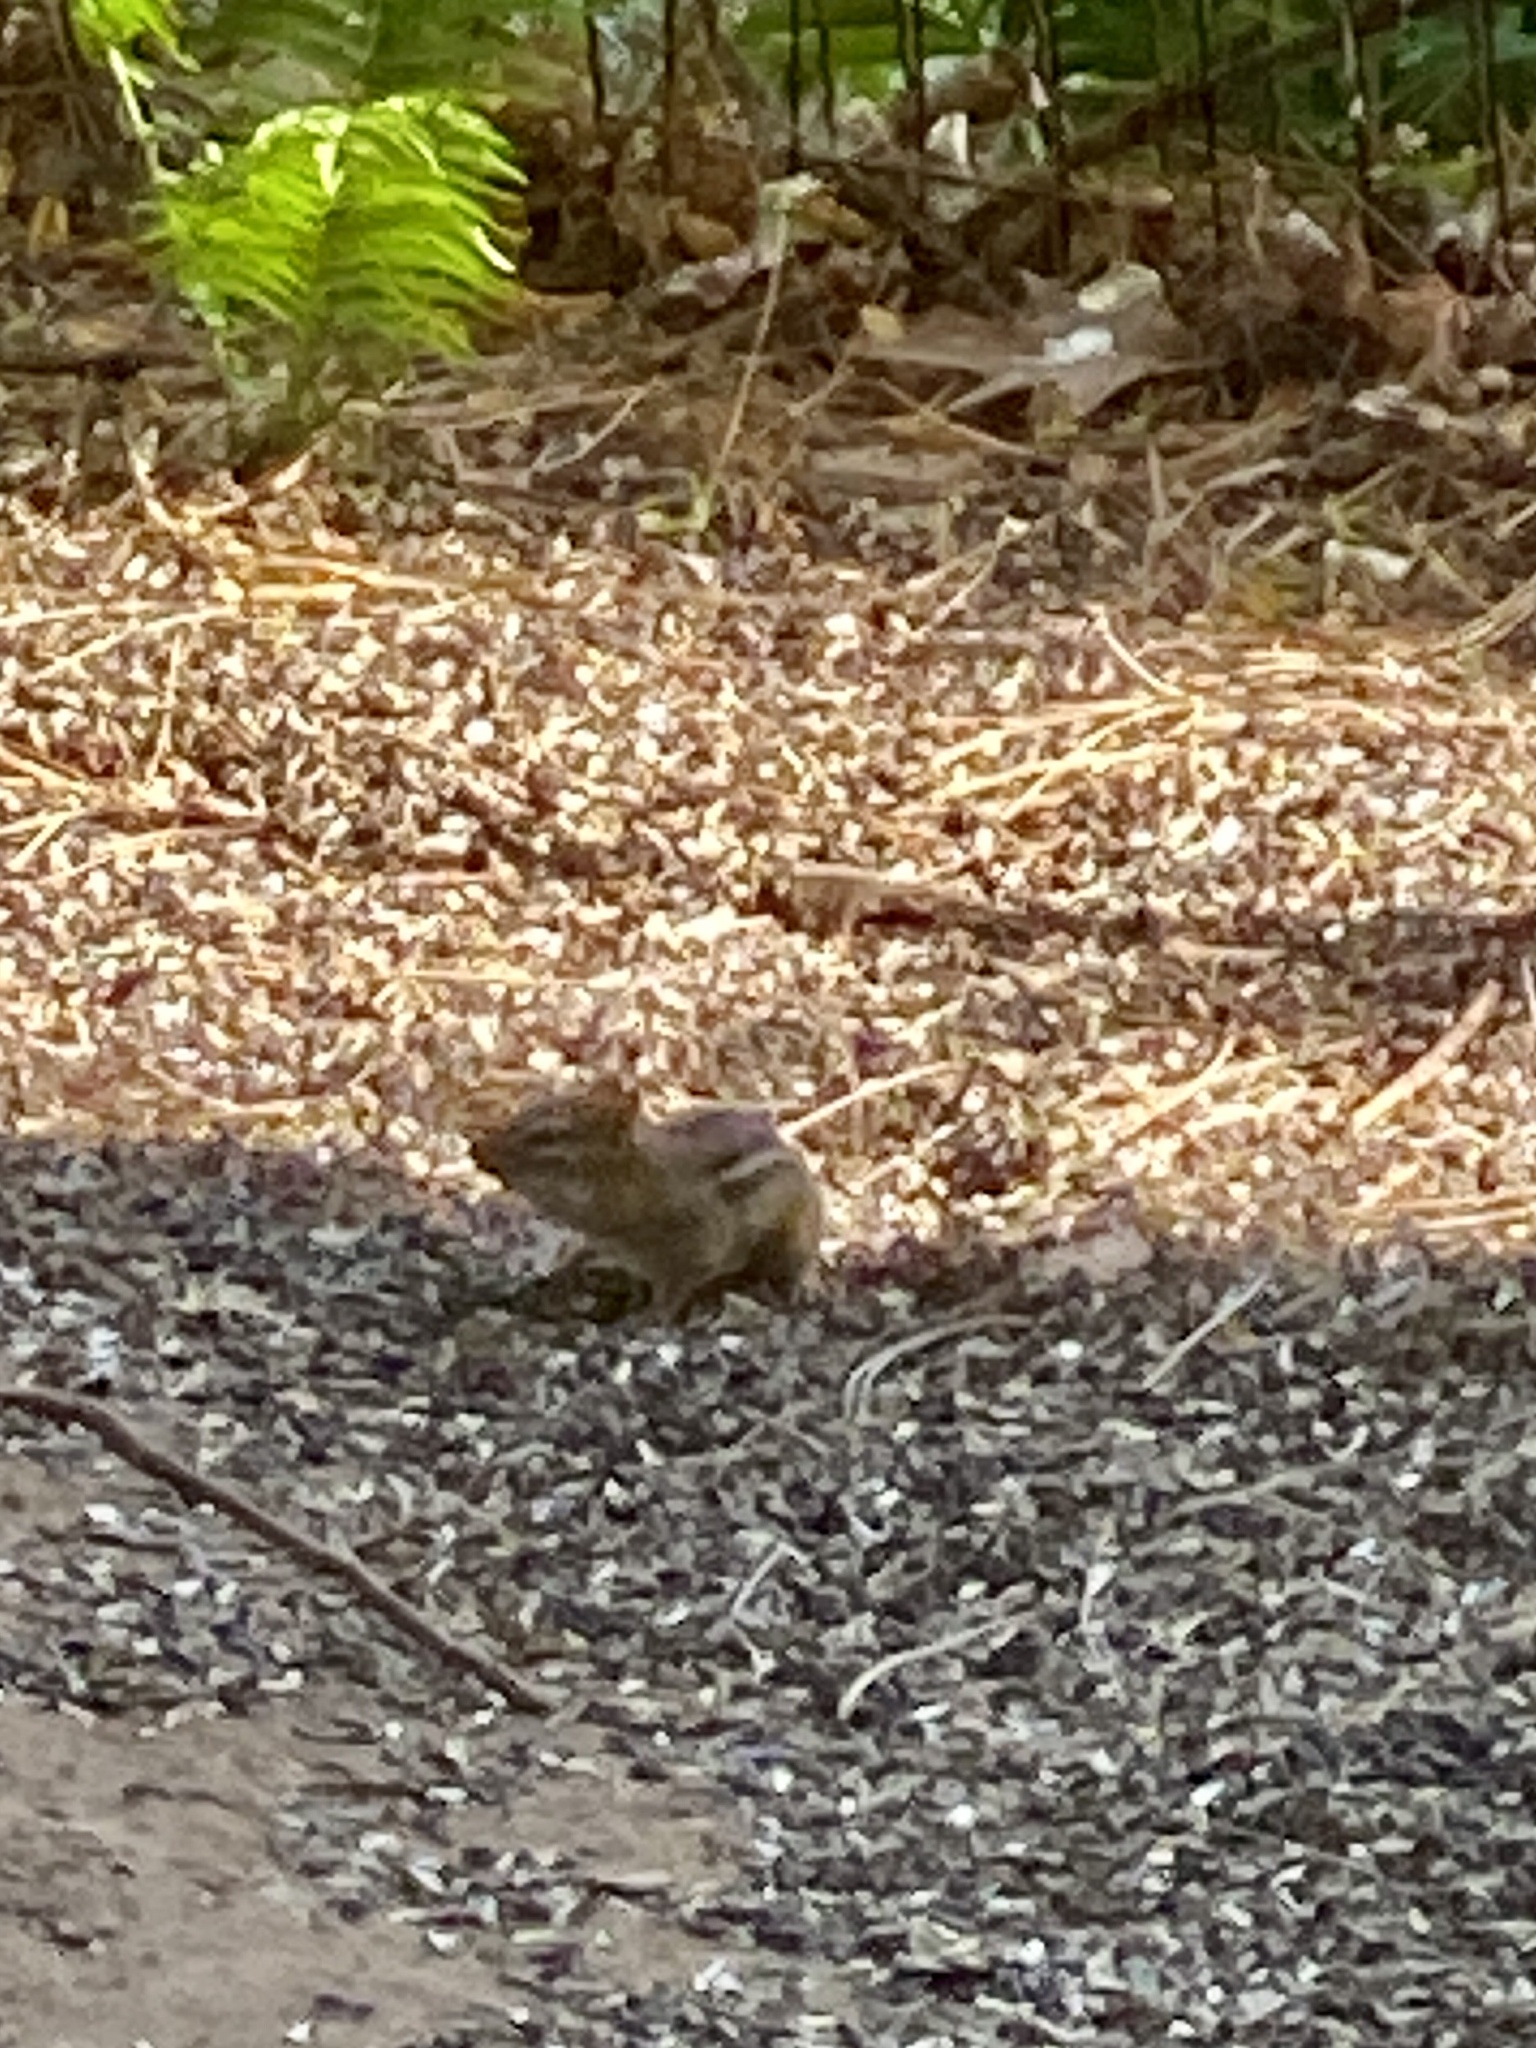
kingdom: Animalia
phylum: Chordata
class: Mammalia
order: Rodentia
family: Sciuridae
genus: Tamias
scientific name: Tamias striatus
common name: Eastern chipmunk
